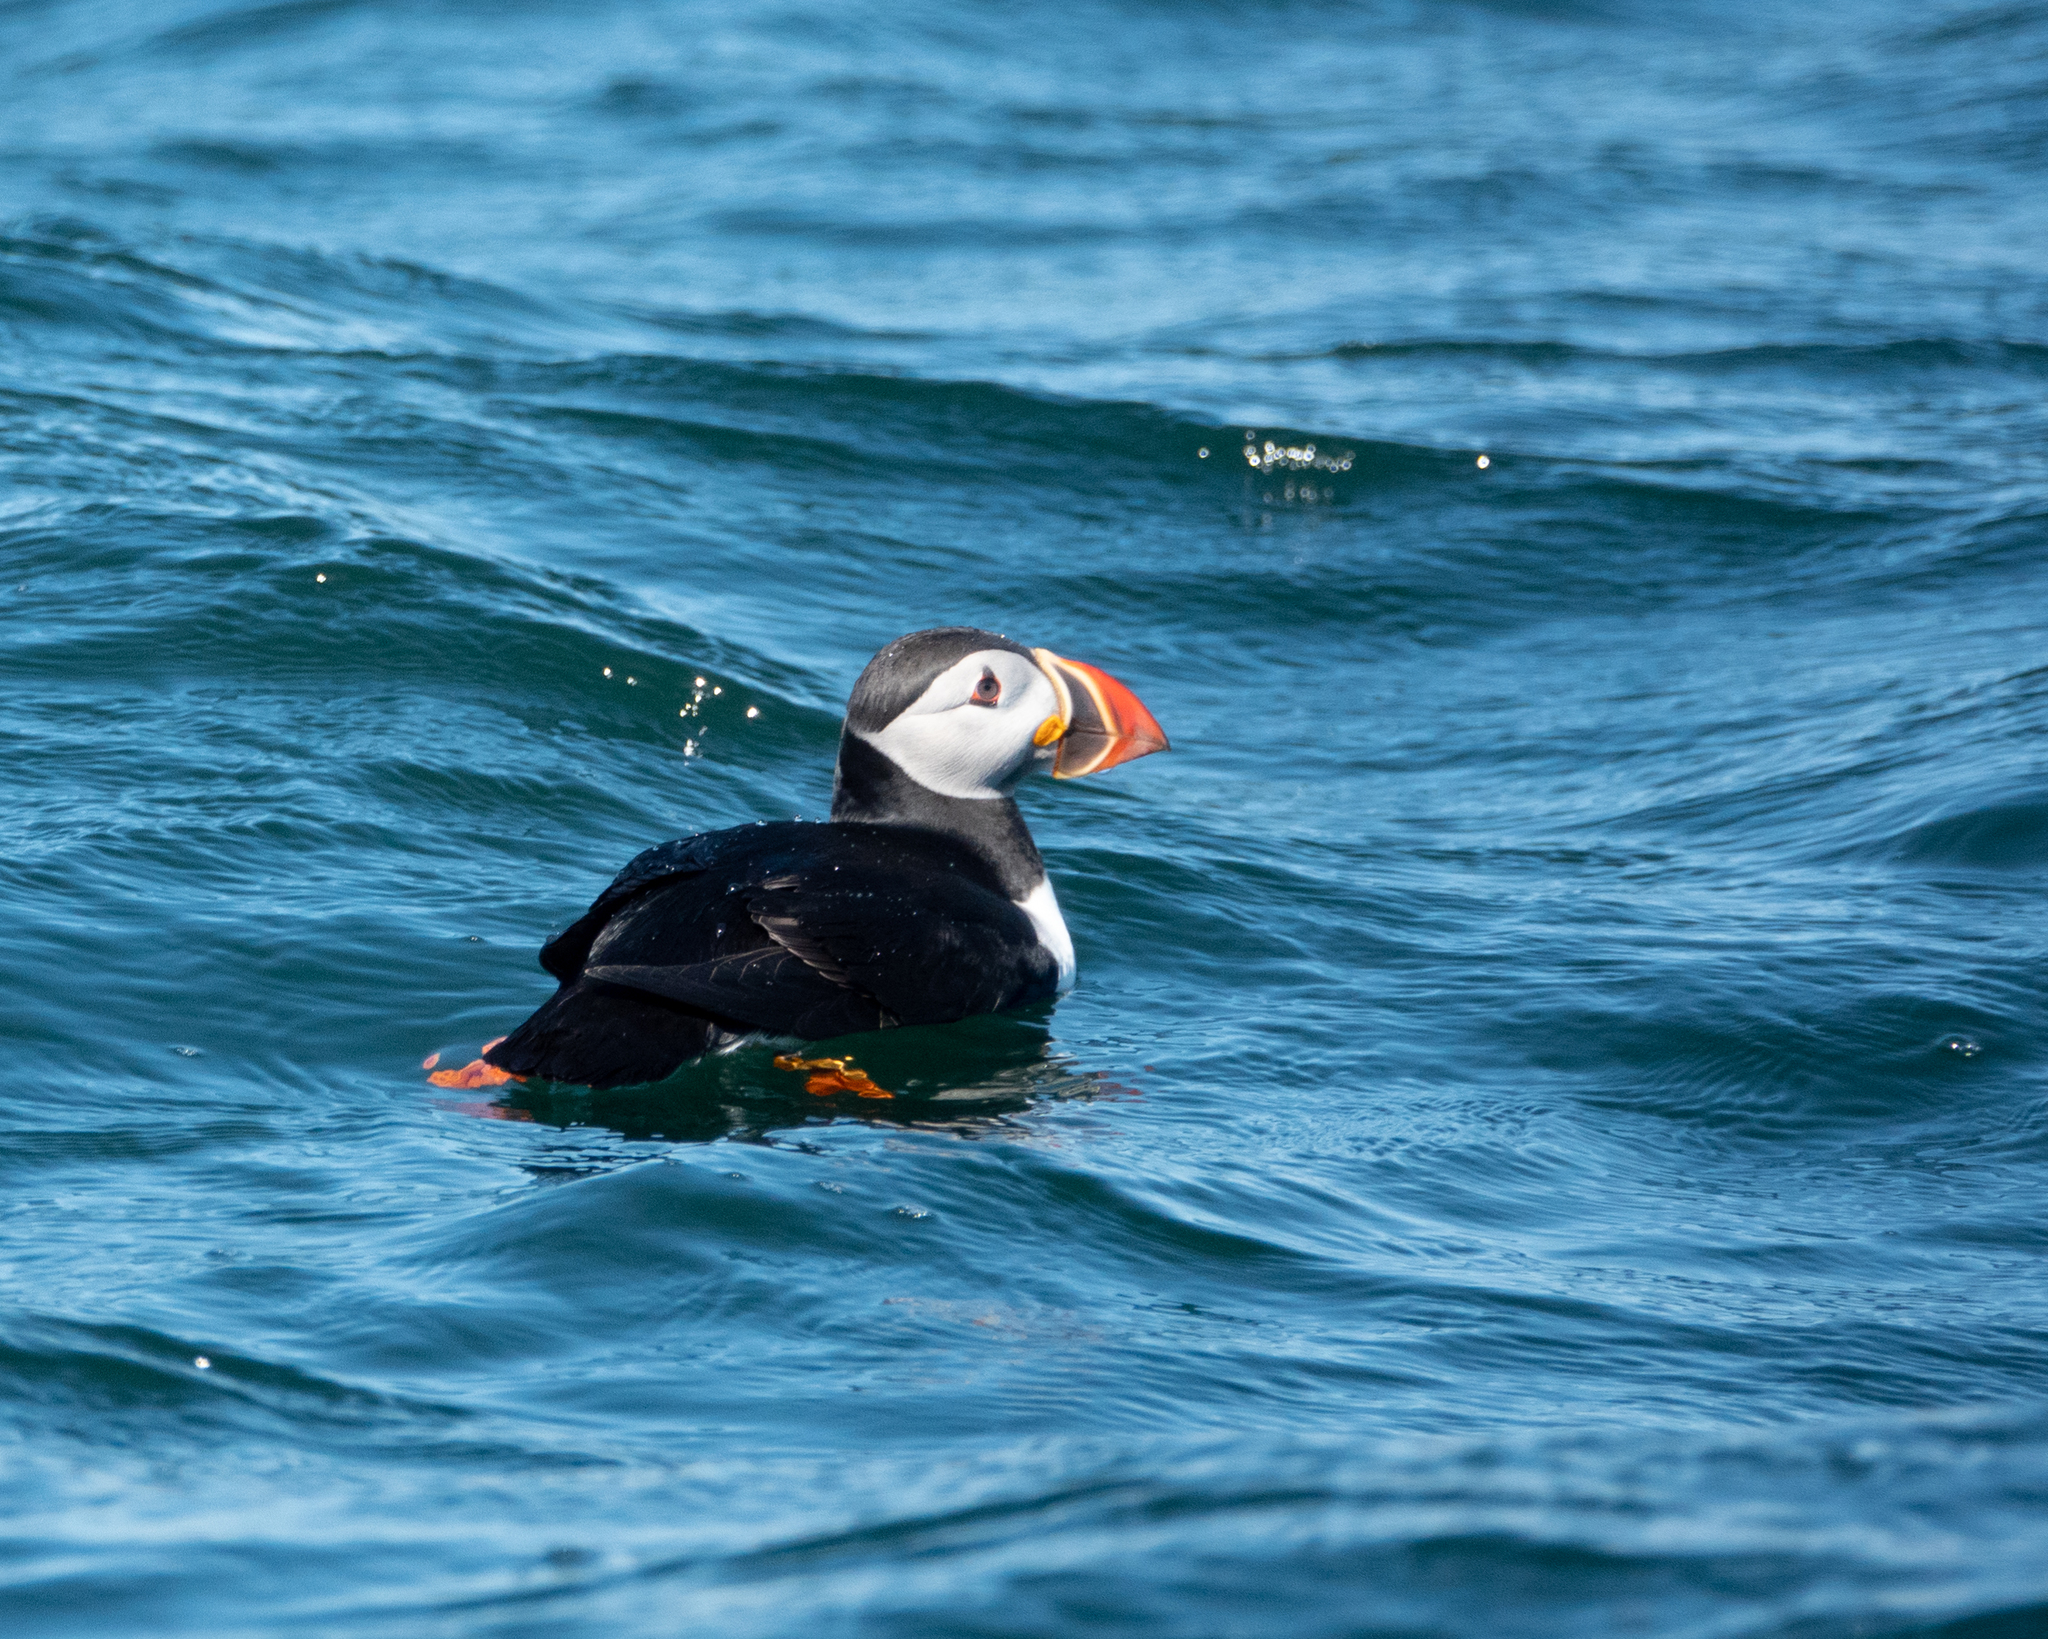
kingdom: Animalia
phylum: Chordata
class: Aves
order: Charadriiformes
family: Alcidae
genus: Fratercula
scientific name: Fratercula arctica
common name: Atlantic puffin
